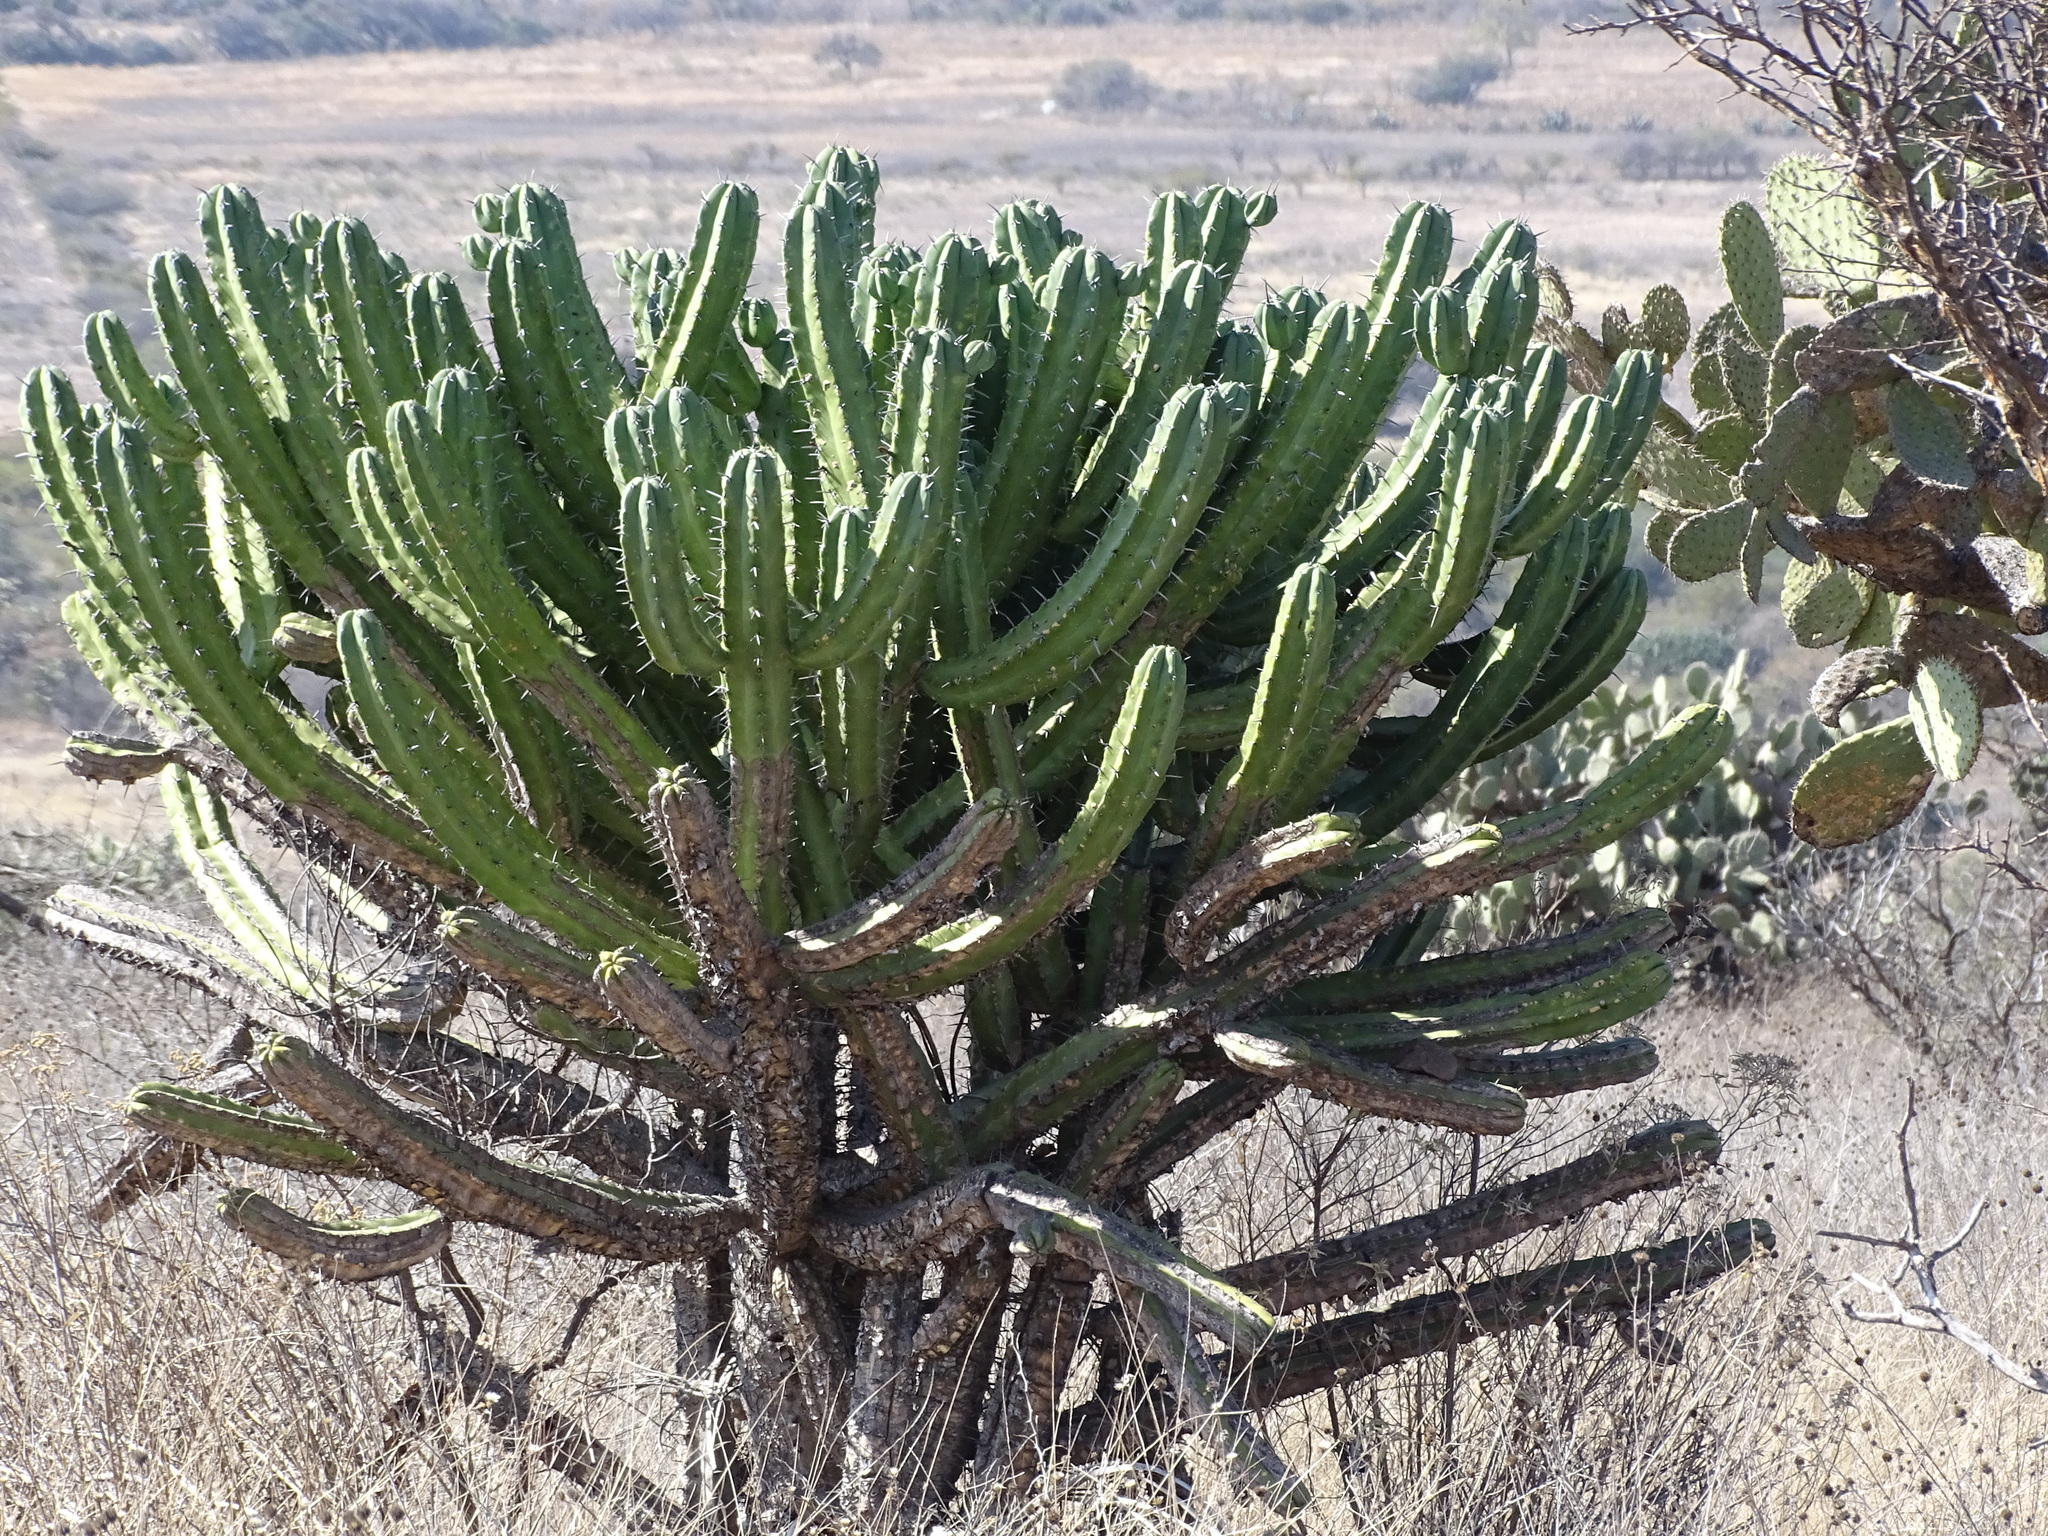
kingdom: Plantae
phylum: Tracheophyta
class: Magnoliopsida
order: Caryophyllales
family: Cactaceae
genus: Myrtillocactus
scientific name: Myrtillocactus geometrizans
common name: Bilberry cactus
